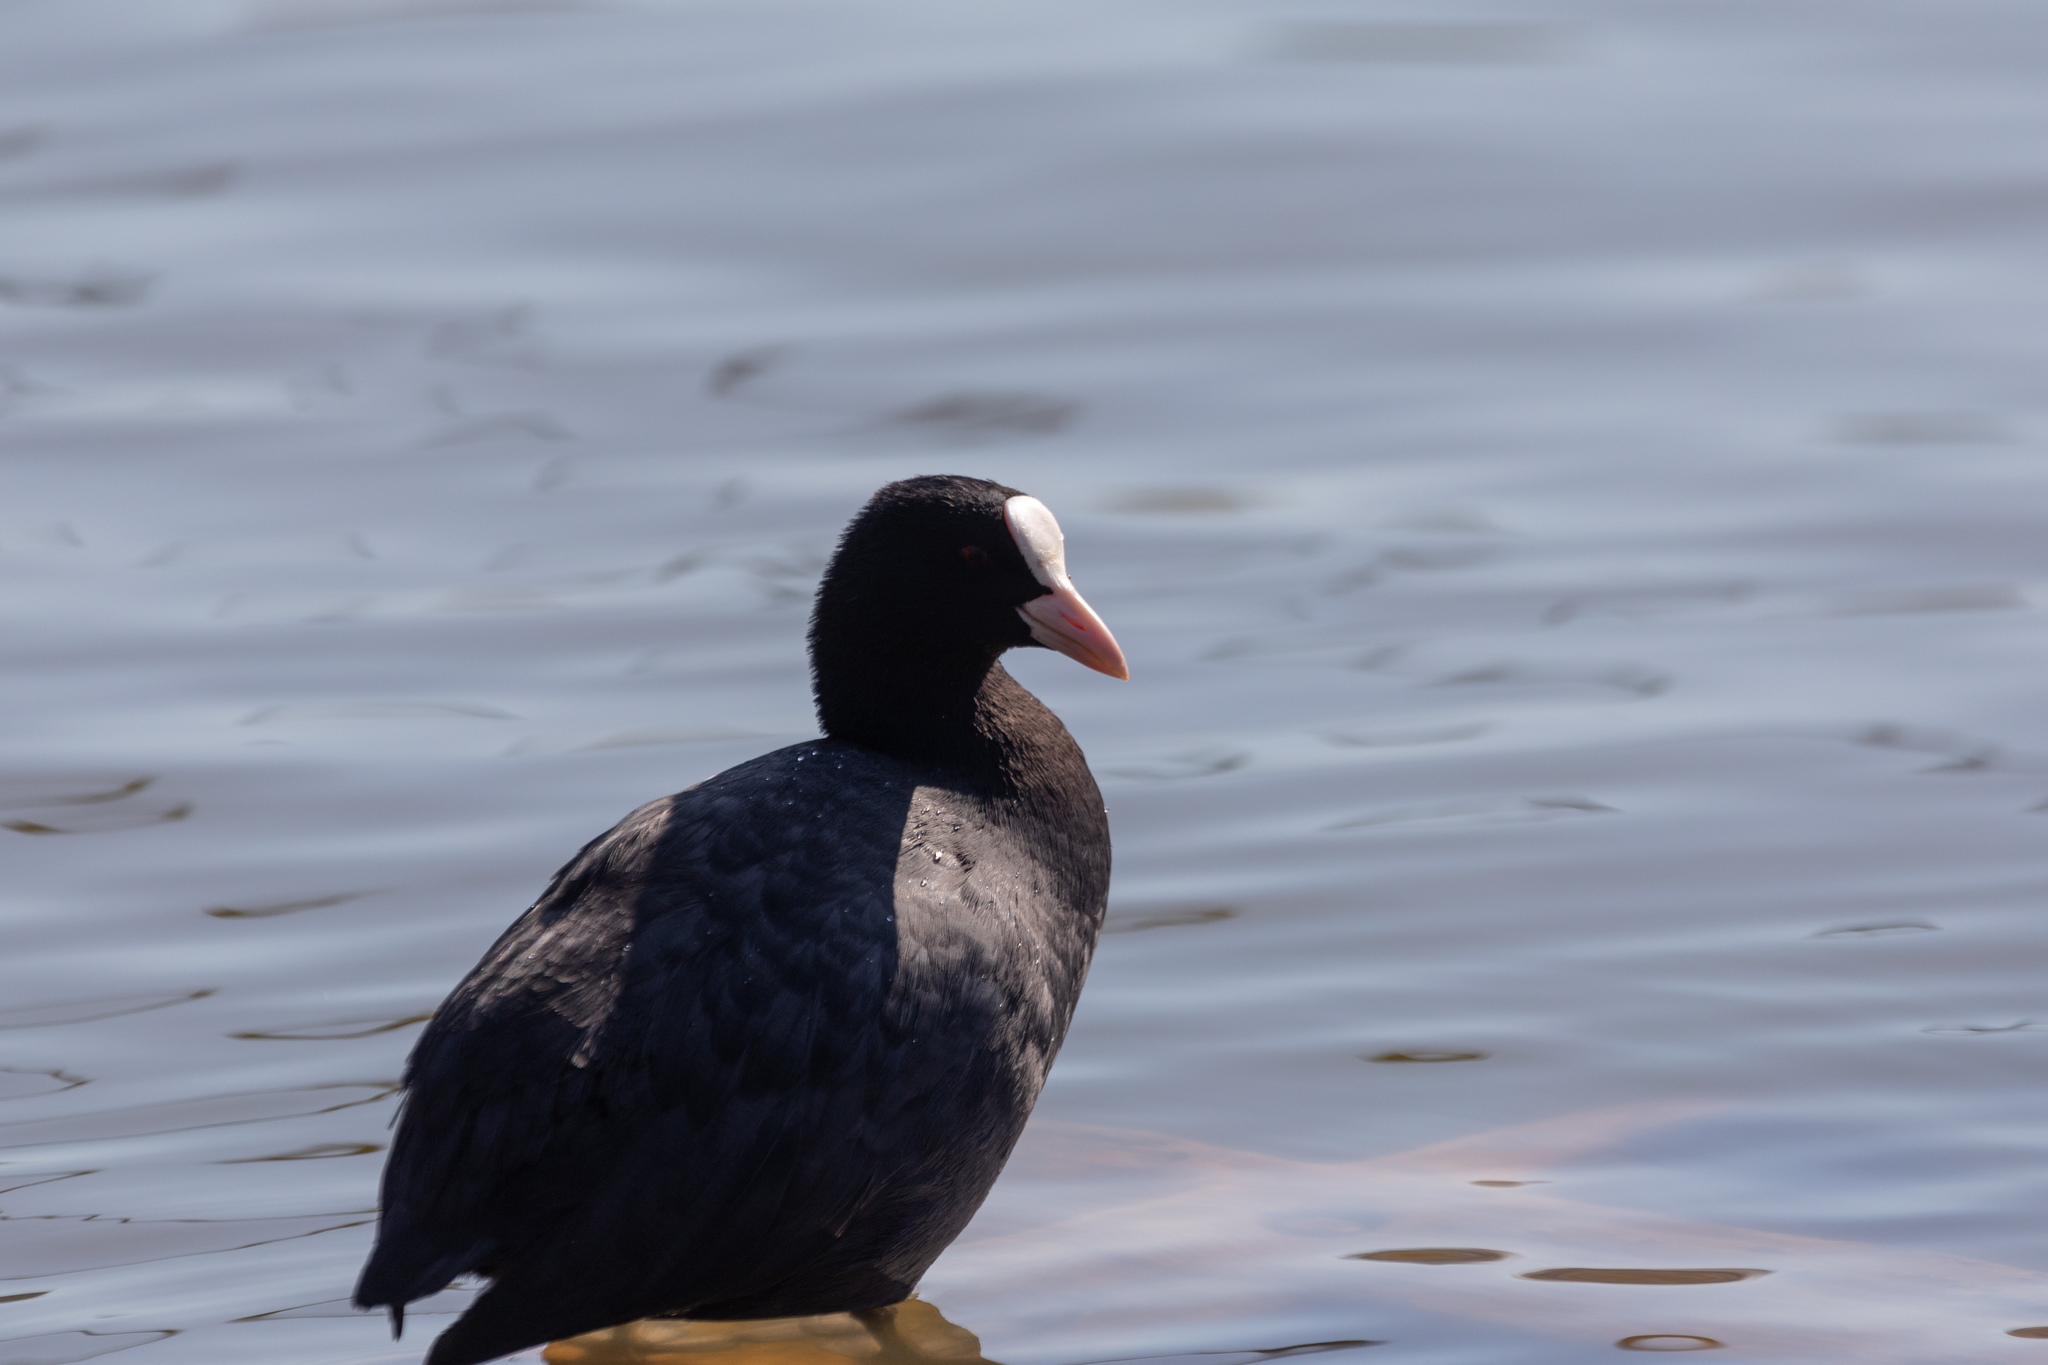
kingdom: Animalia
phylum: Chordata
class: Aves
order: Gruiformes
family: Rallidae
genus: Fulica
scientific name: Fulica atra
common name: Eurasian coot
